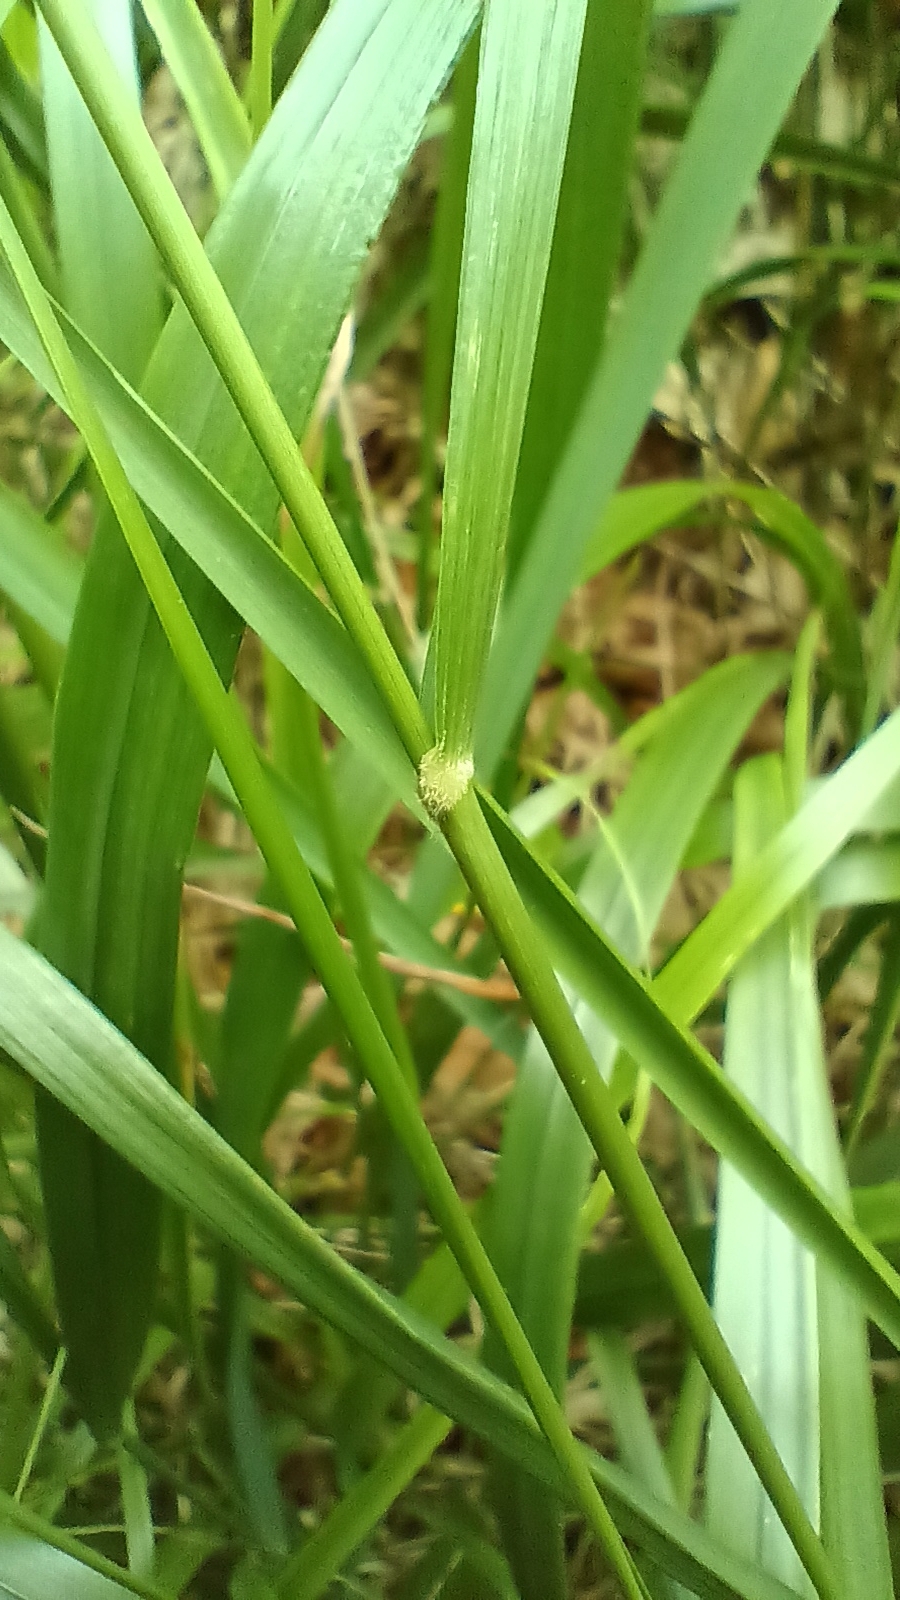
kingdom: Plantae
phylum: Tracheophyta
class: Liliopsida
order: Poales
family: Poaceae
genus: Calamagrostis
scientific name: Calamagrostis villosa
